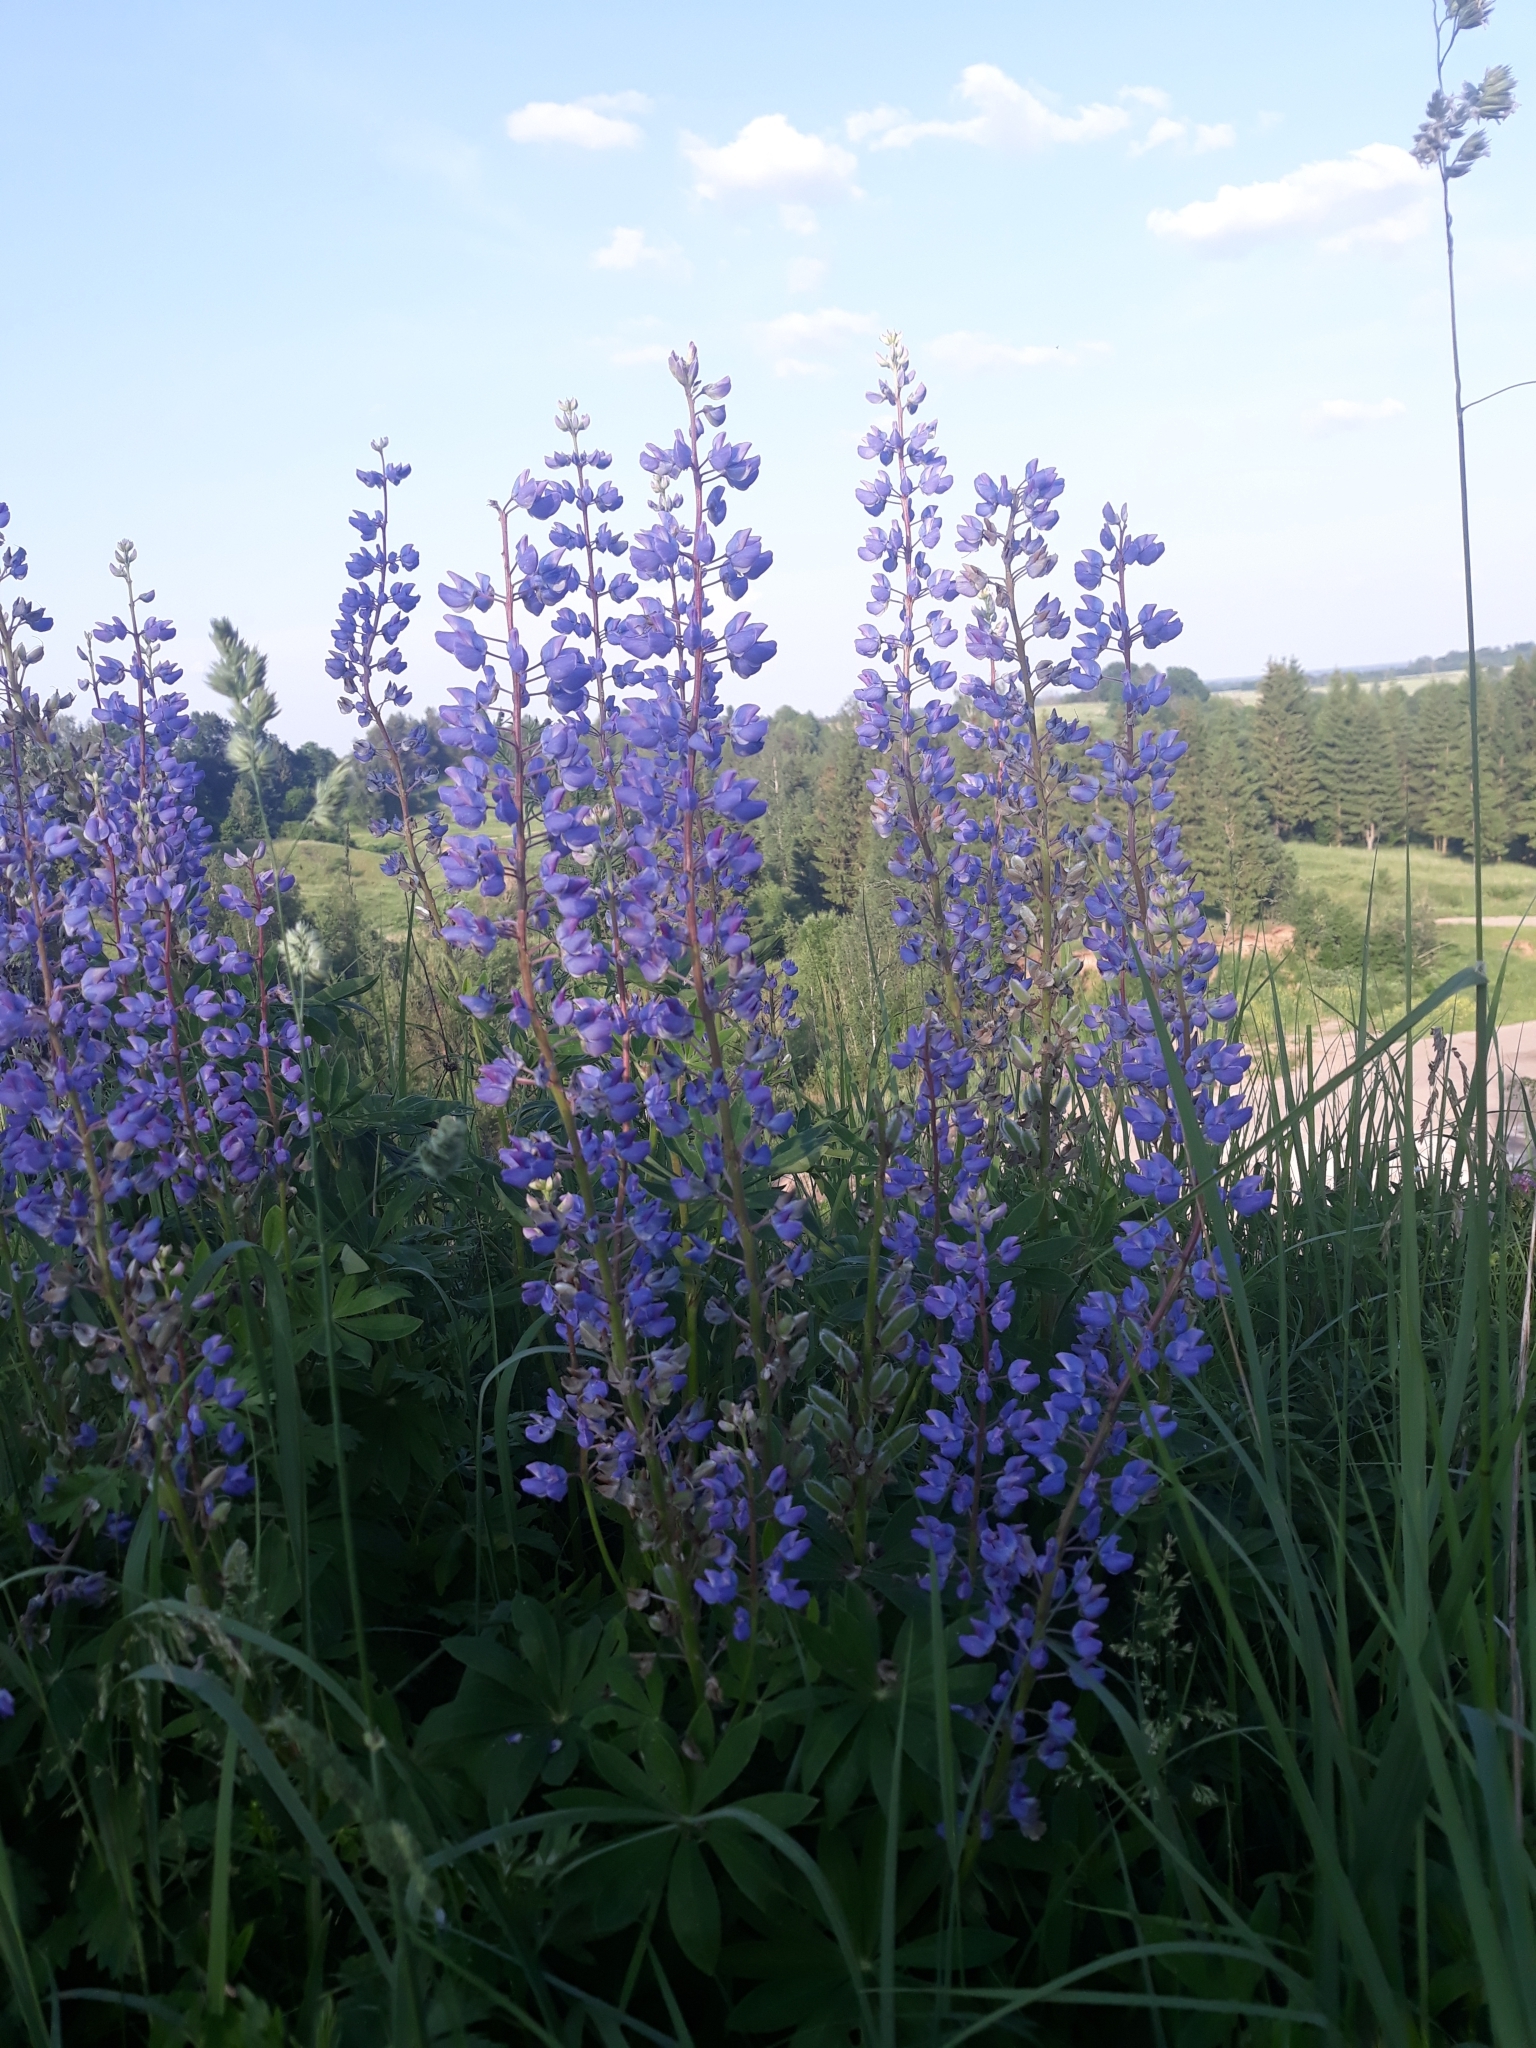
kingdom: Plantae
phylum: Tracheophyta
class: Magnoliopsida
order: Fabales
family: Fabaceae
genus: Lupinus
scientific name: Lupinus polyphyllus
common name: Garden lupin
